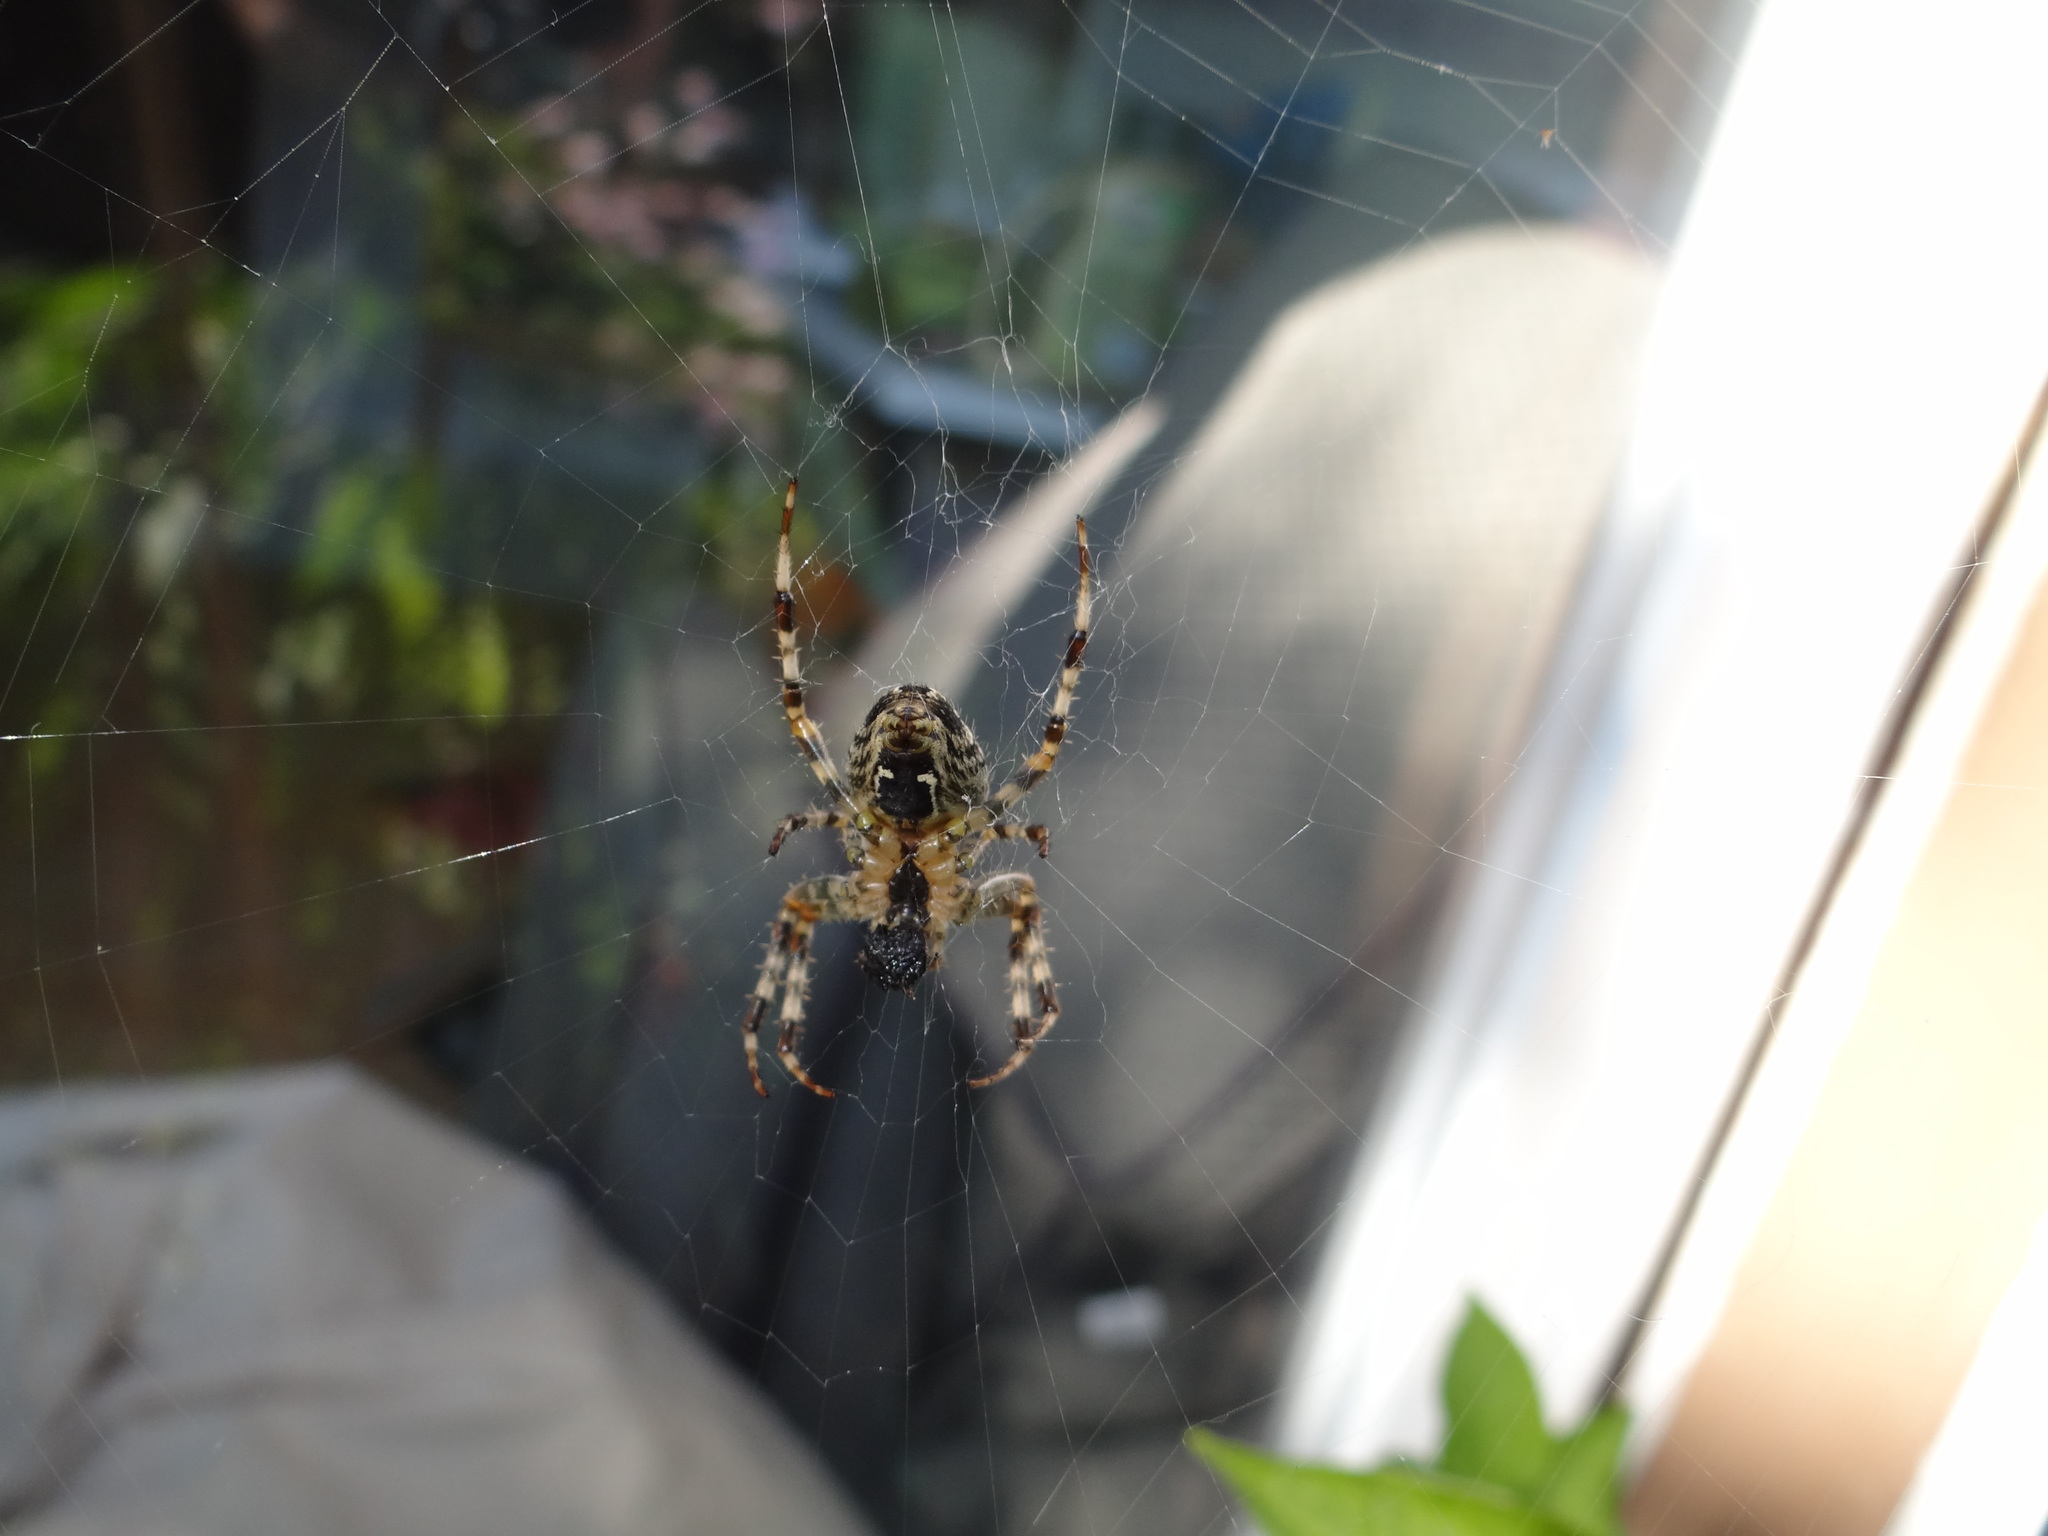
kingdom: Animalia
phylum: Arthropoda
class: Arachnida
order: Araneae
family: Araneidae
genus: Araneus
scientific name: Araneus diadematus
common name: Cross orbweaver
